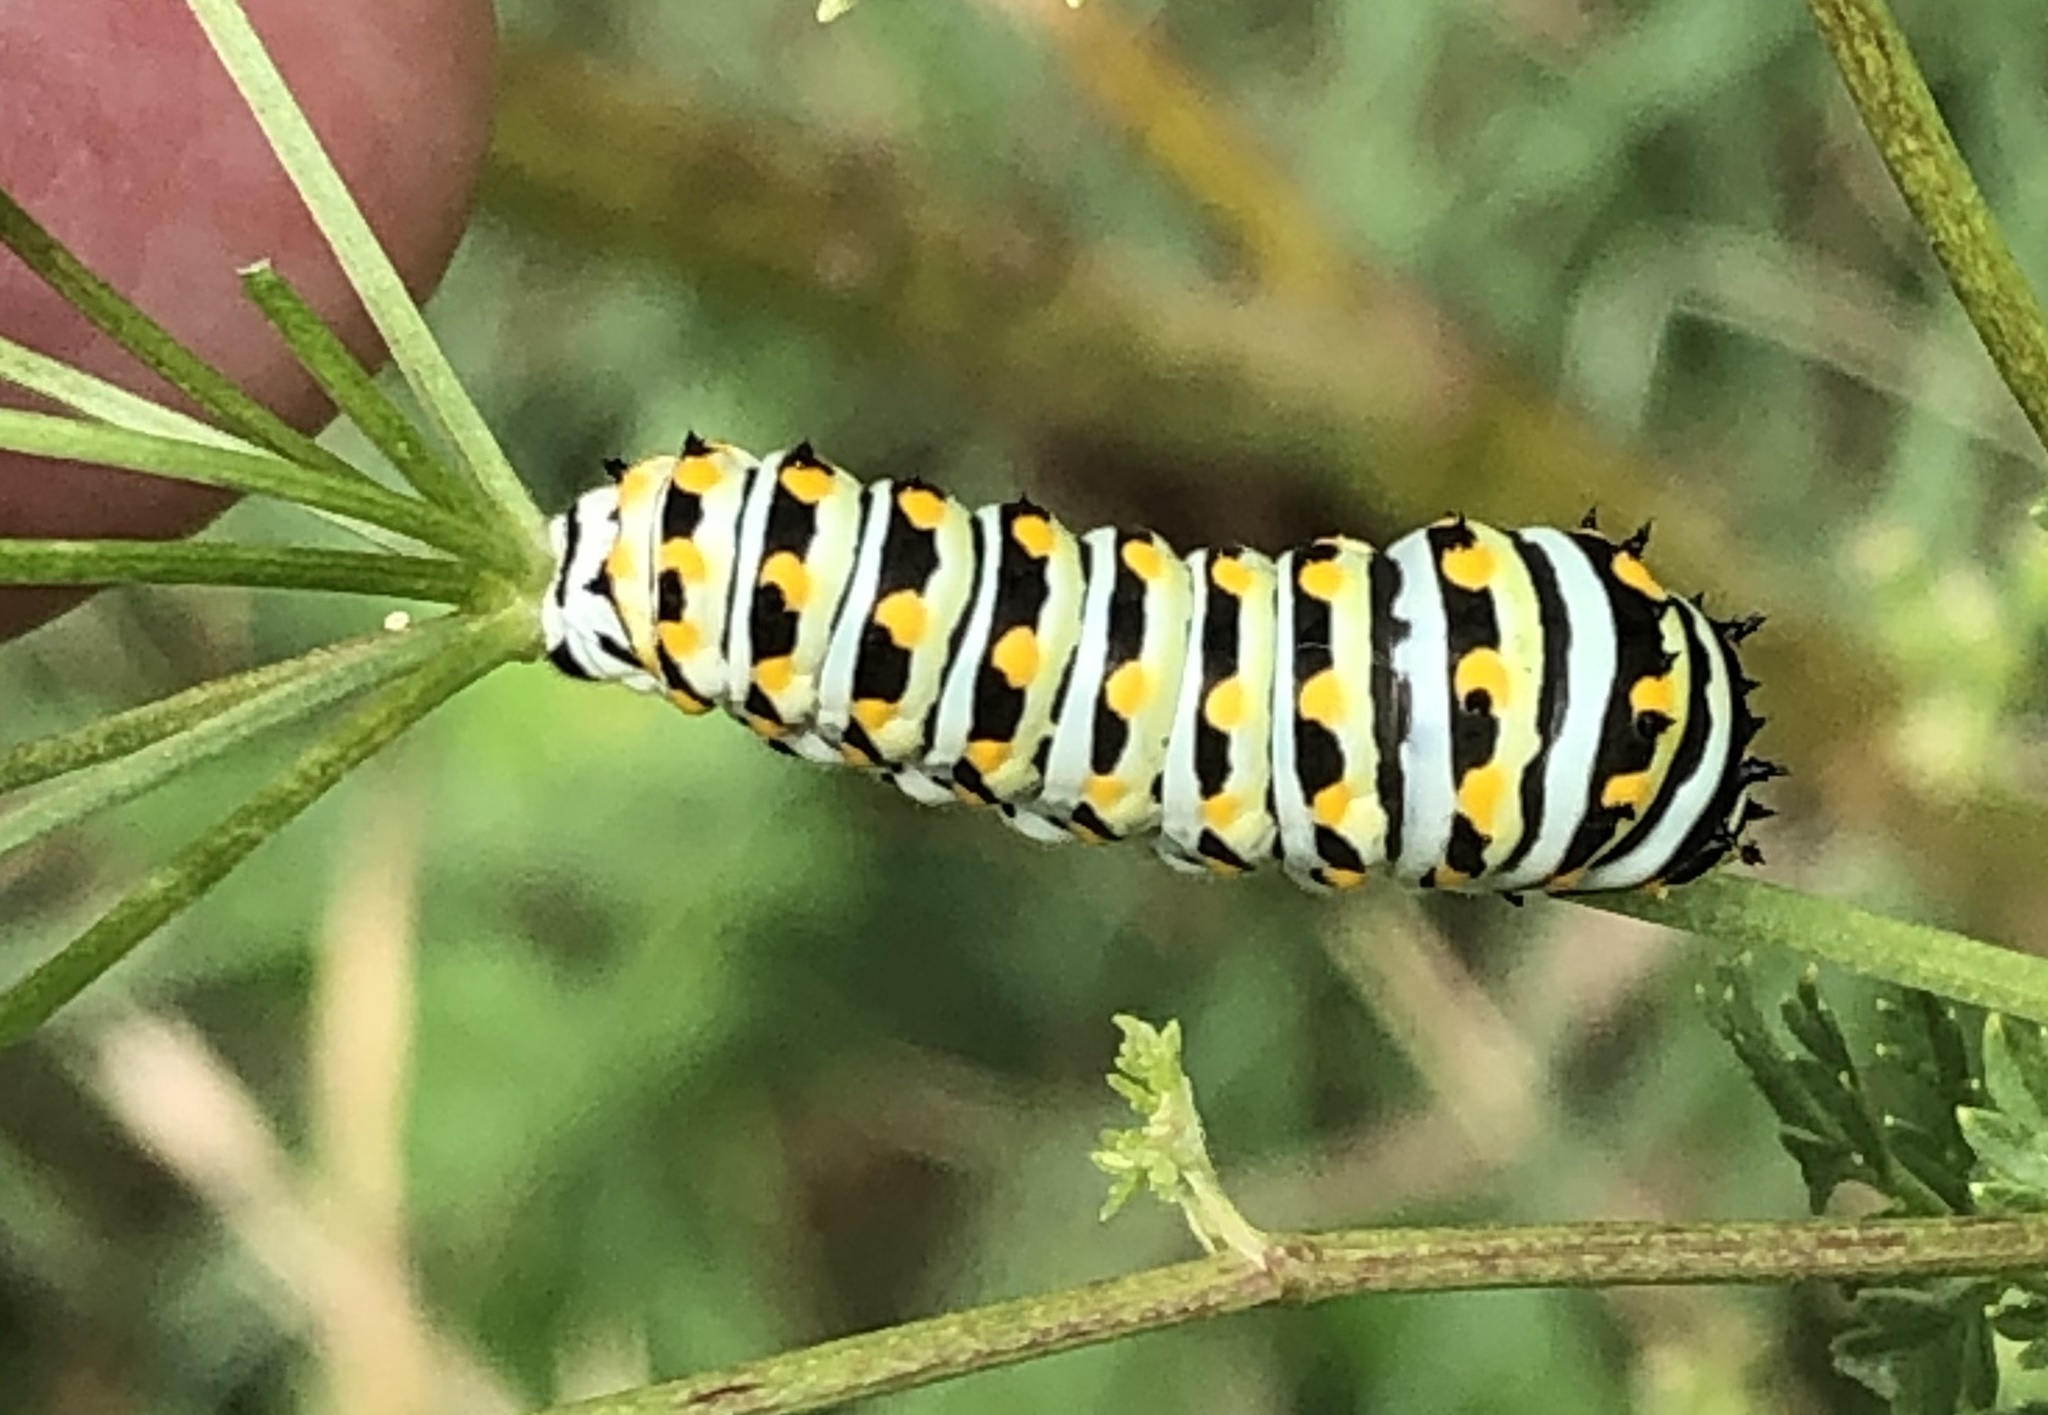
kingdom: Animalia
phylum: Arthropoda
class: Insecta
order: Lepidoptera
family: Papilionidae
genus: Papilio
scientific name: Papilio polyxenes
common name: Black swallowtail
